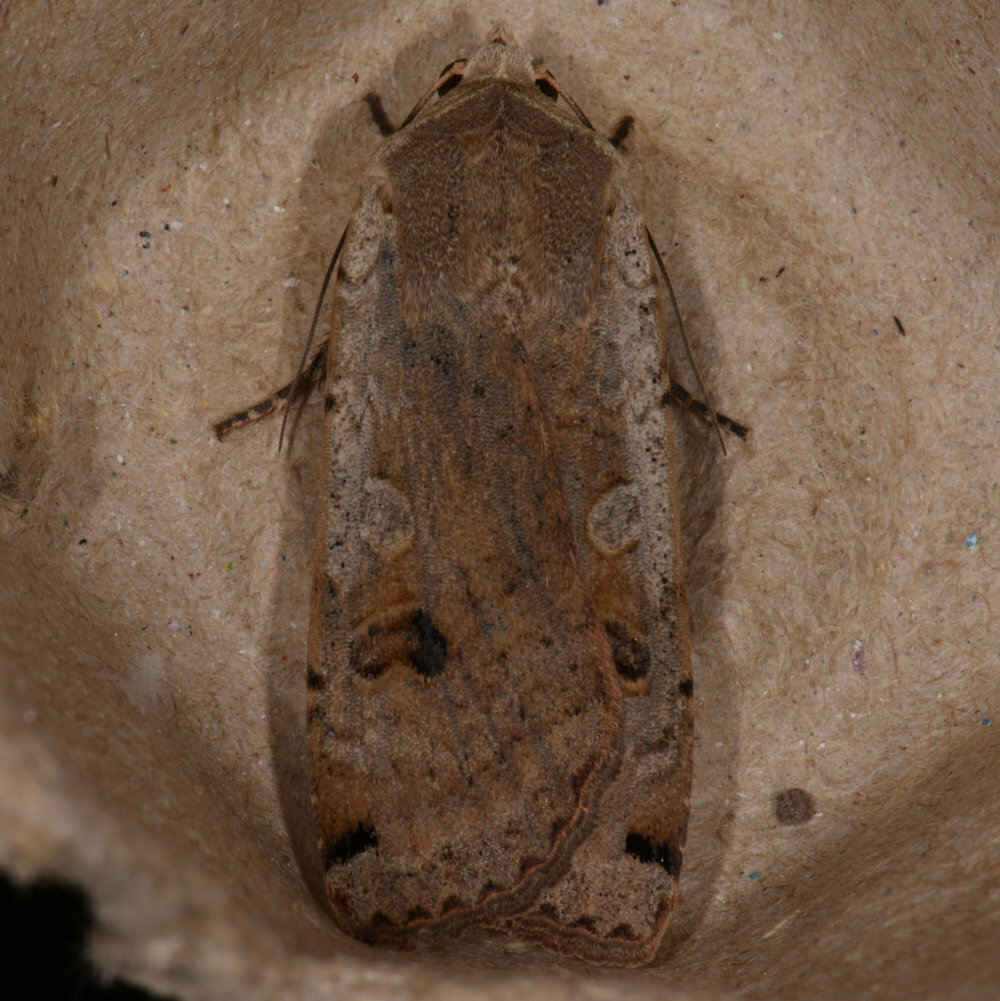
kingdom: Animalia
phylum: Arthropoda
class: Insecta
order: Lepidoptera
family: Noctuidae
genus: Noctua
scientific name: Noctua pronuba
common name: Large yellow underwing
